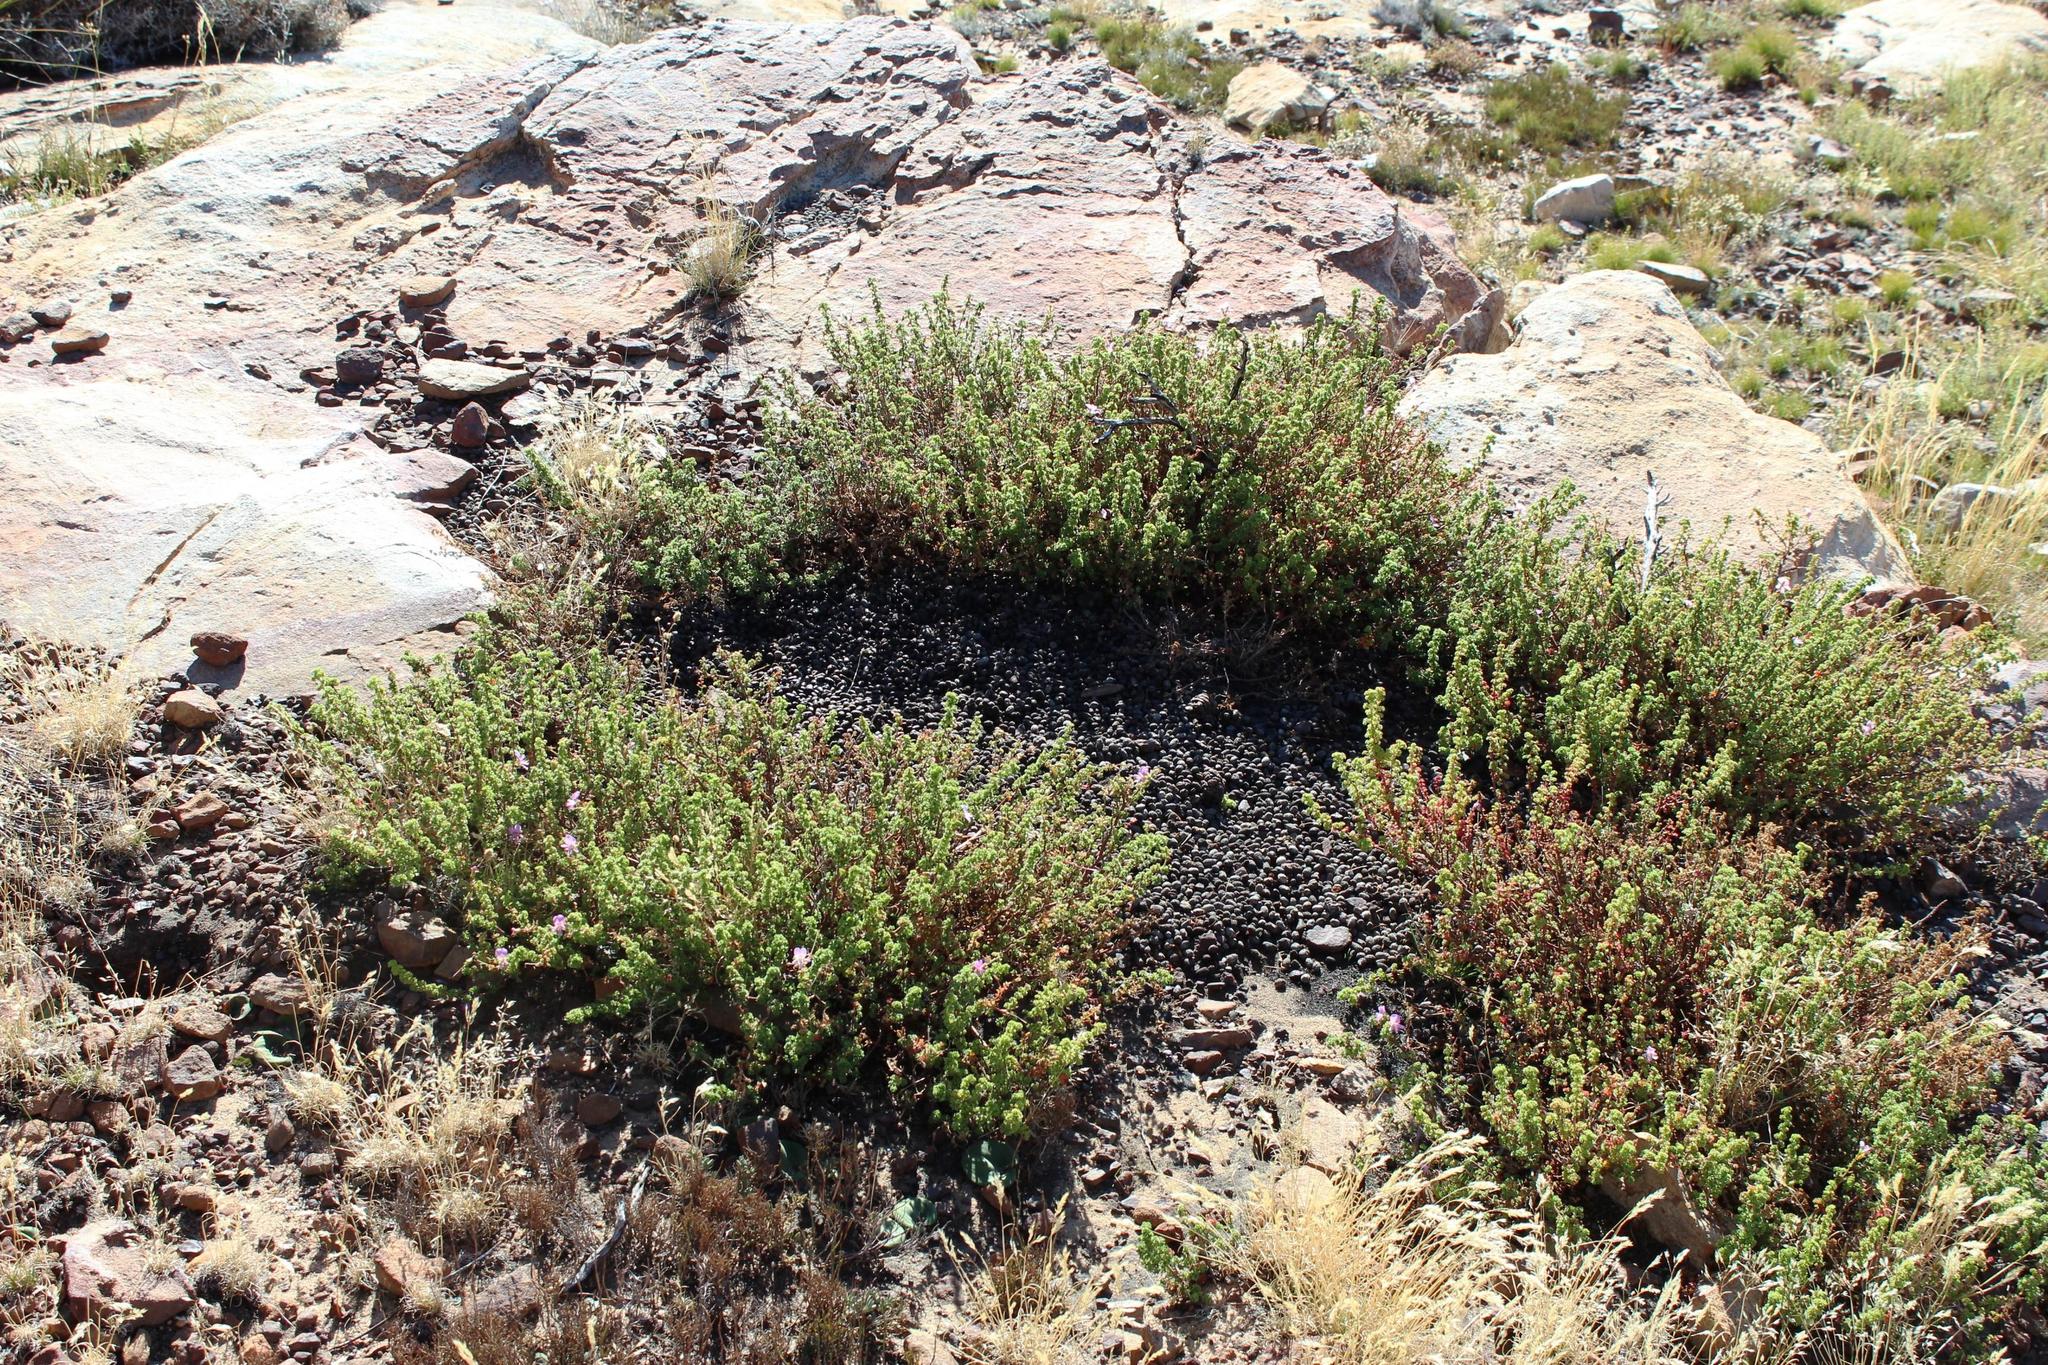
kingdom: Animalia
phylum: Chordata
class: Mammalia
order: Artiodactyla
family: Bovidae
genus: Oreotragus
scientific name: Oreotragus oreotragus
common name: Klipspringer
